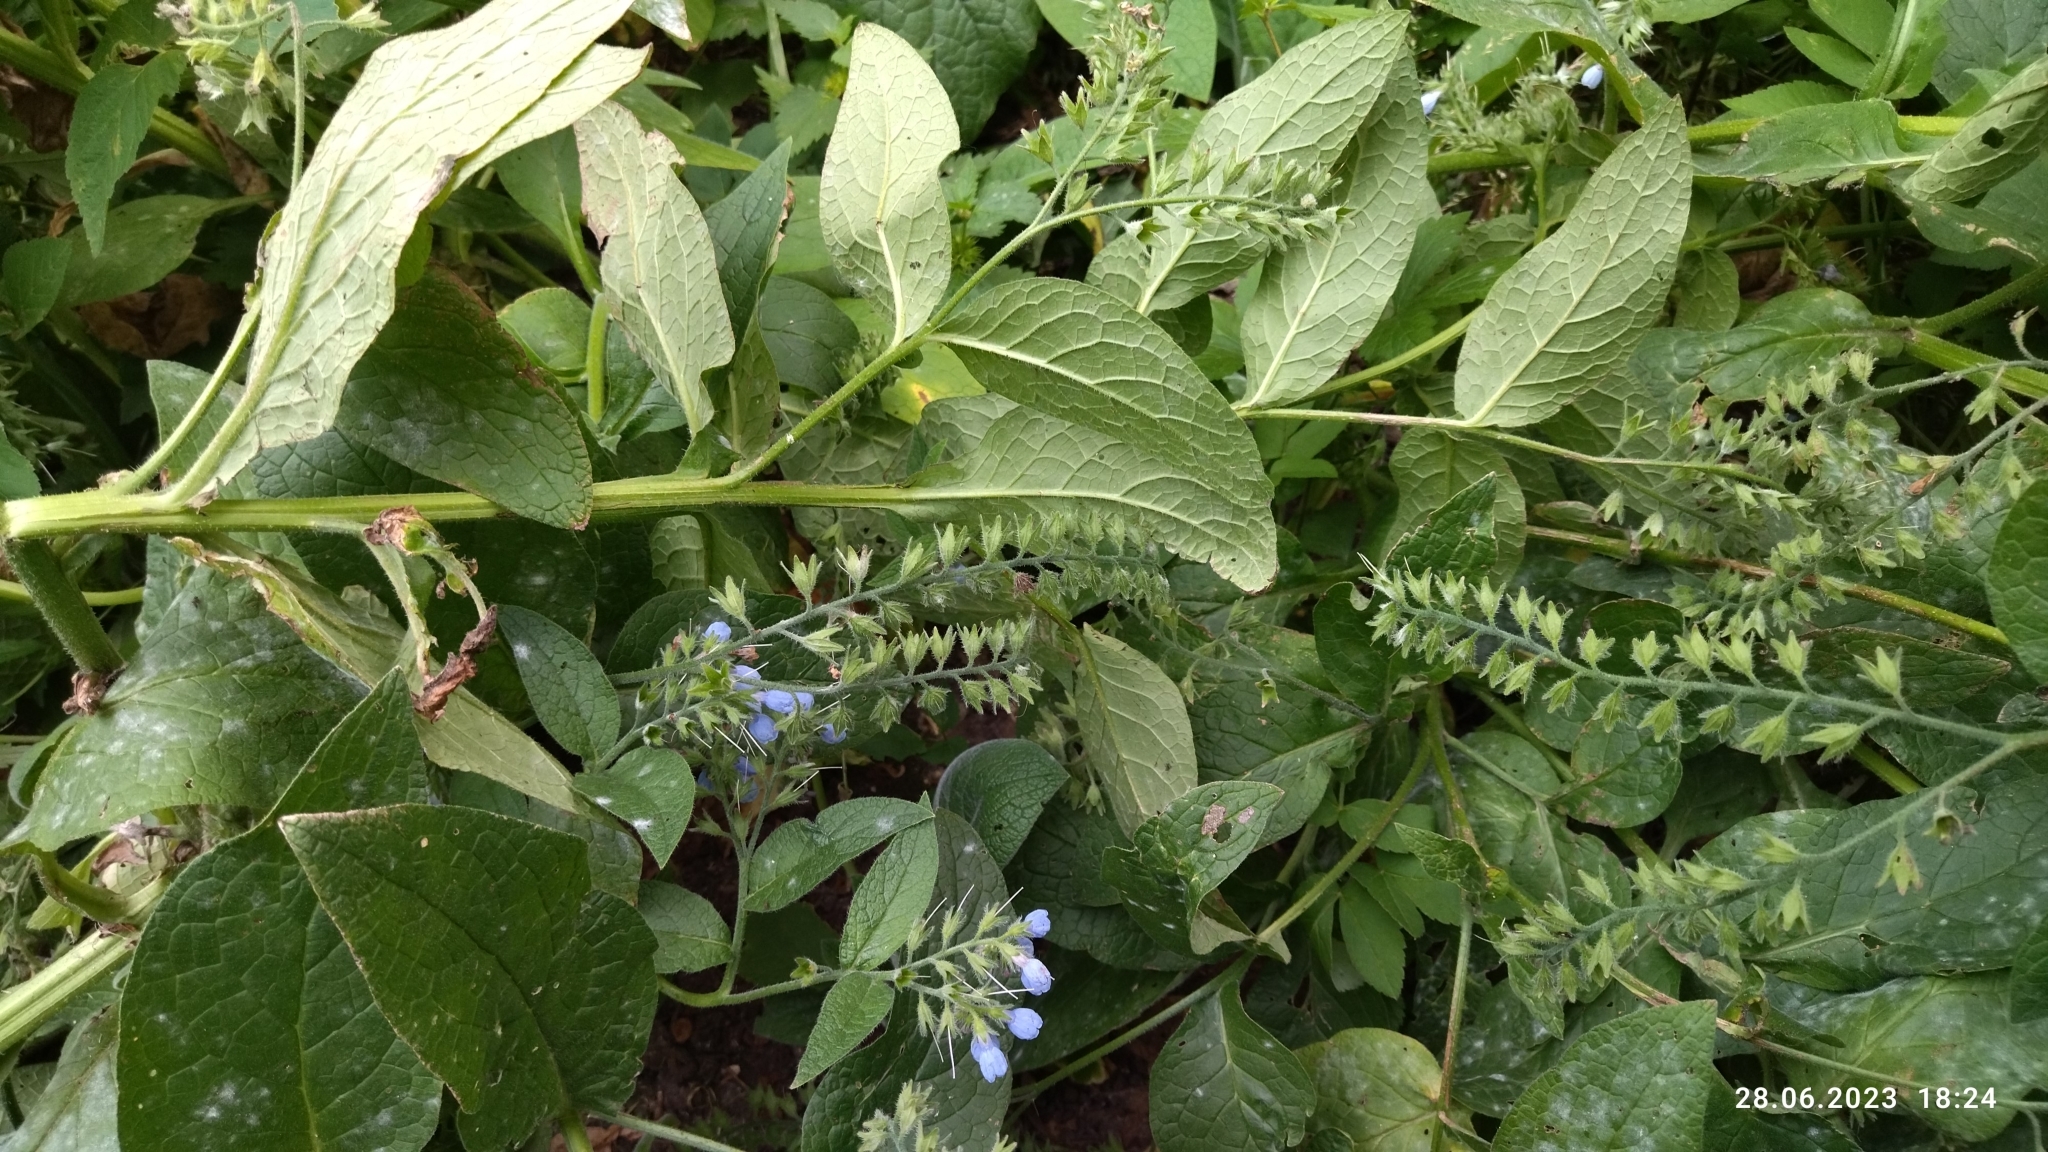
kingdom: Plantae
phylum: Tracheophyta
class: Magnoliopsida
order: Boraginales
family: Boraginaceae
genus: Symphytum
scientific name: Symphytum caucasicum
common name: Caucasian comfrey
